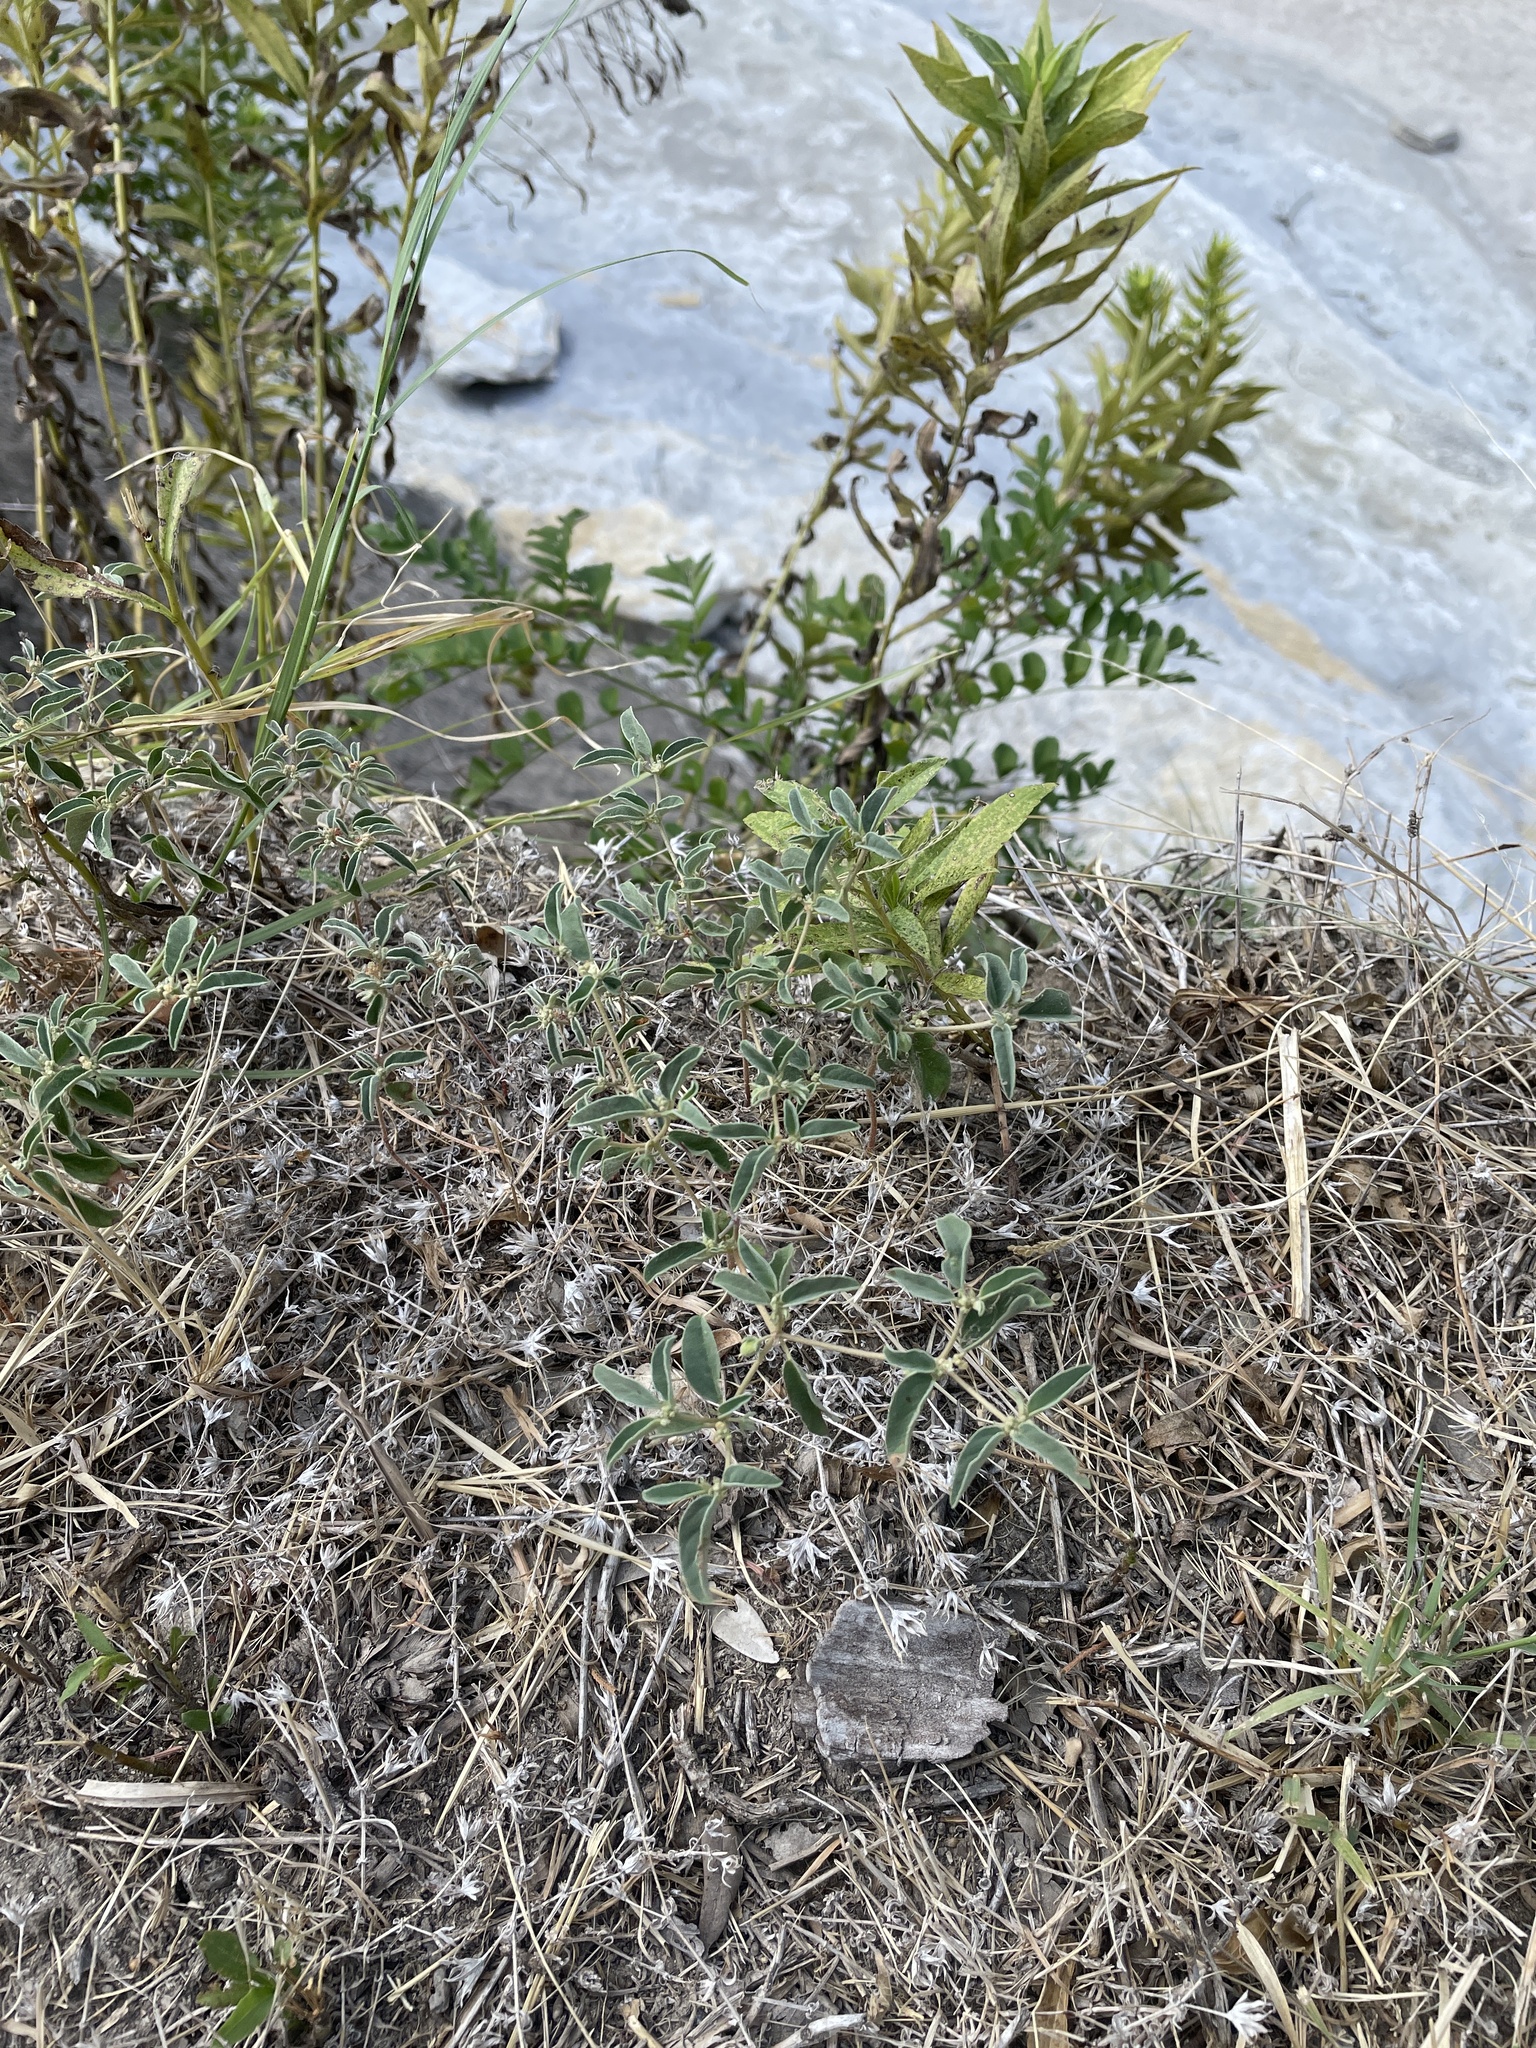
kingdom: Plantae
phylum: Tracheophyta
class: Magnoliopsida
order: Malpighiales
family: Euphorbiaceae
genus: Croton
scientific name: Croton monanthogynus
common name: One-seed croton
